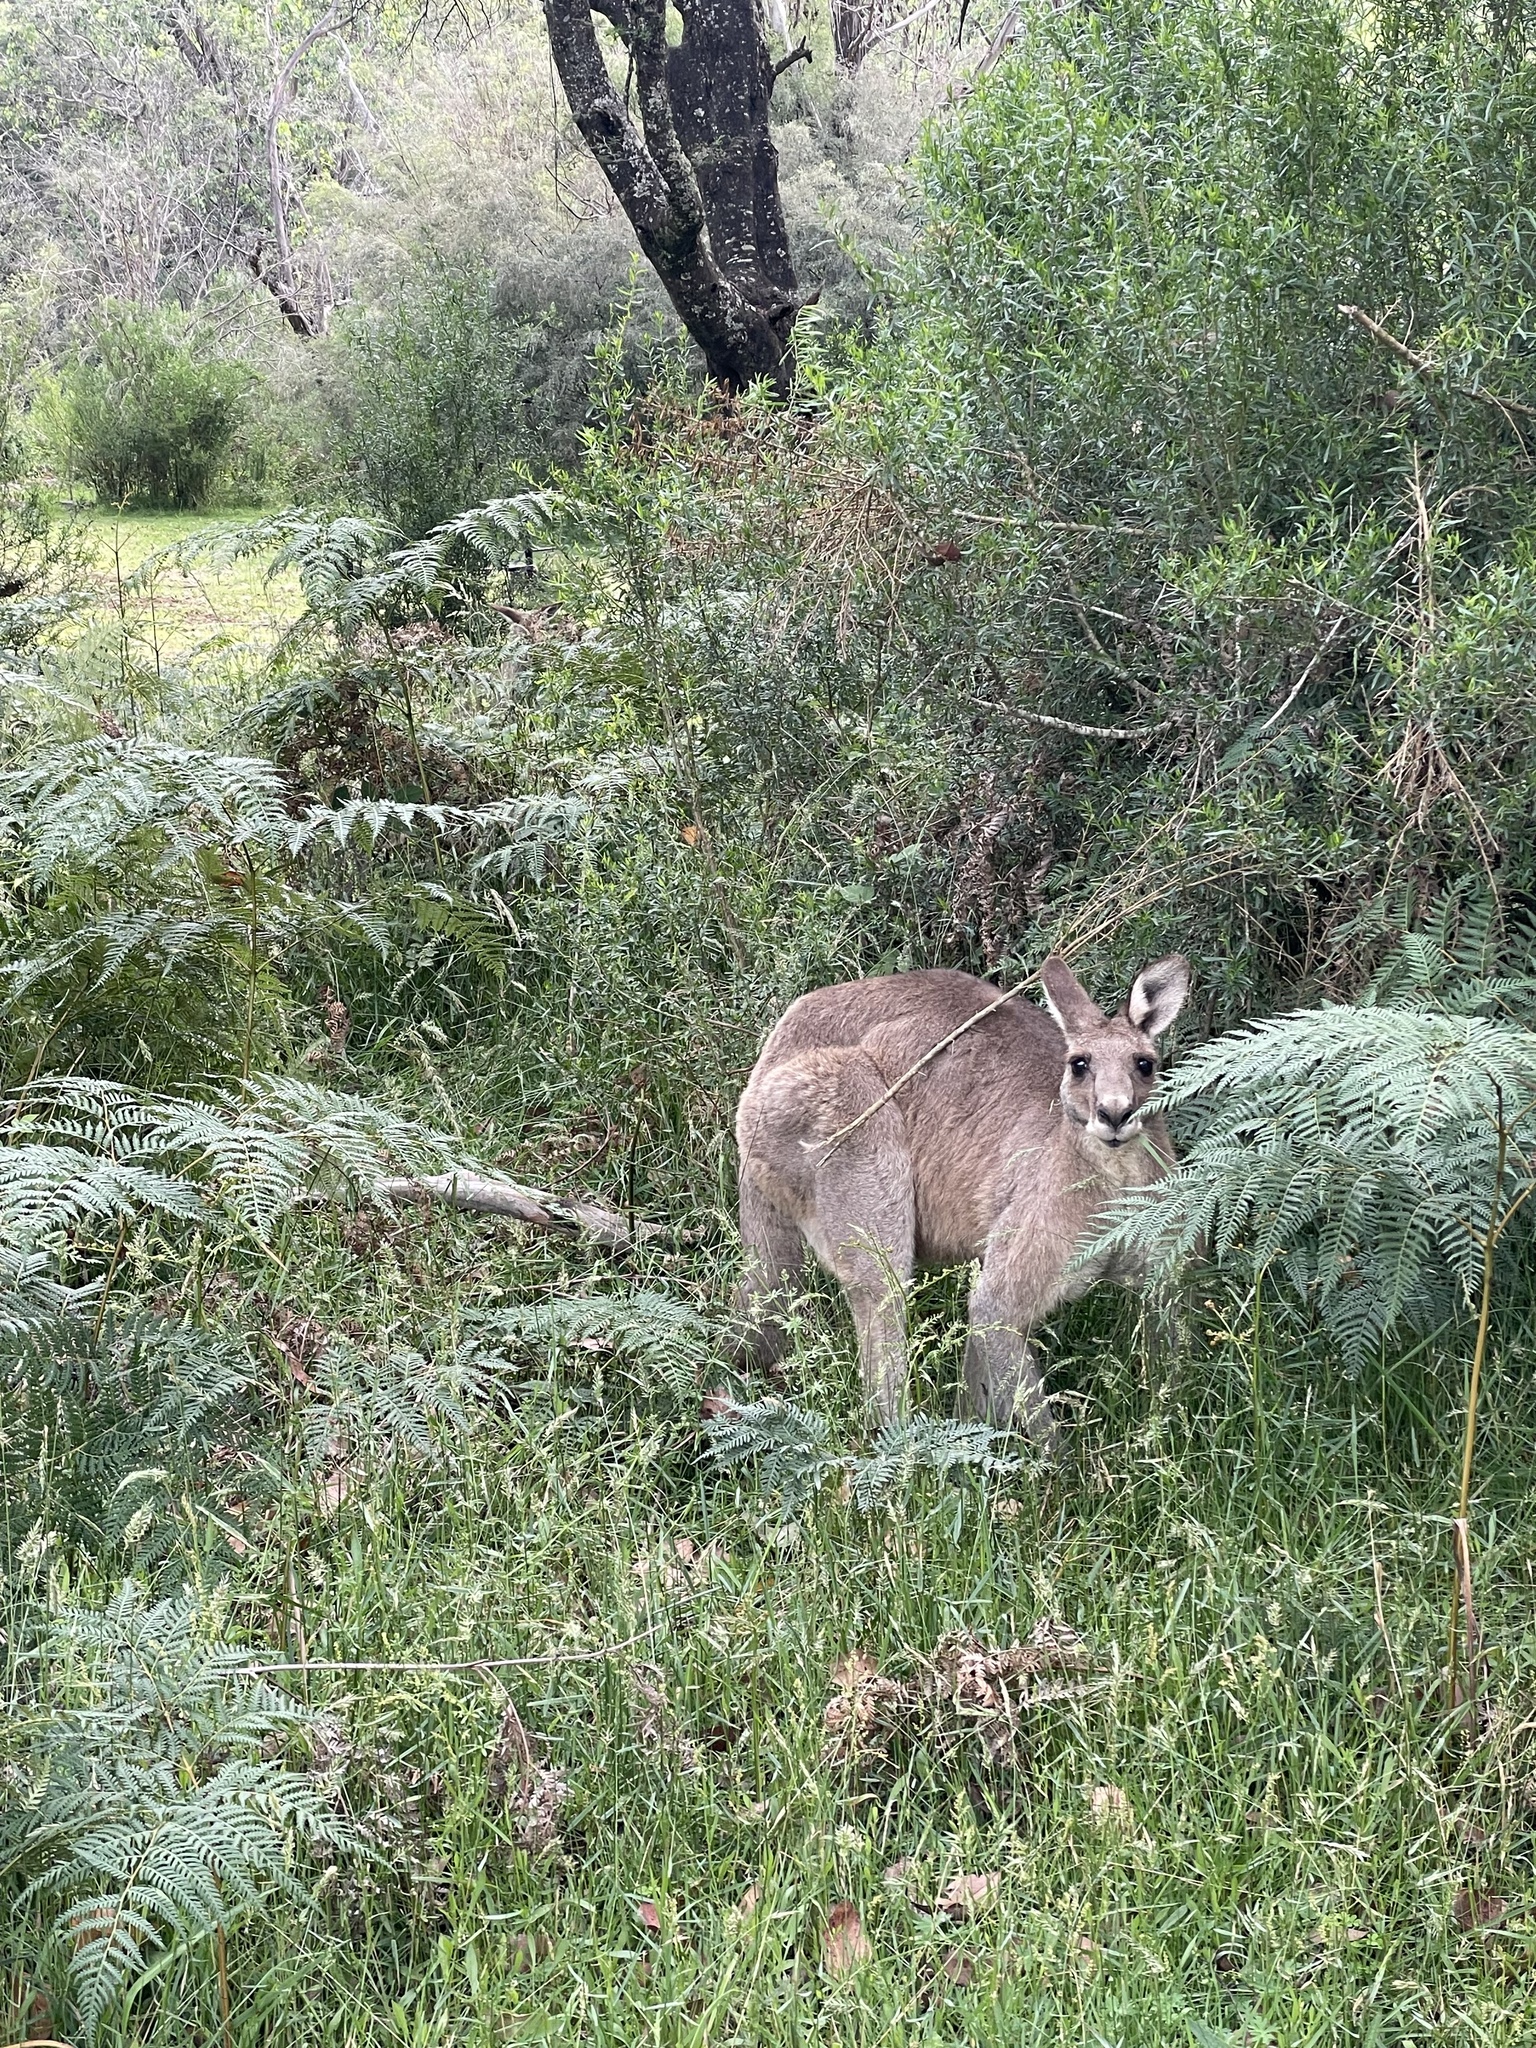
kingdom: Animalia
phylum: Chordata
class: Mammalia
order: Diprotodontia
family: Macropodidae
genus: Macropus
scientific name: Macropus giganteus
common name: Eastern grey kangaroo
